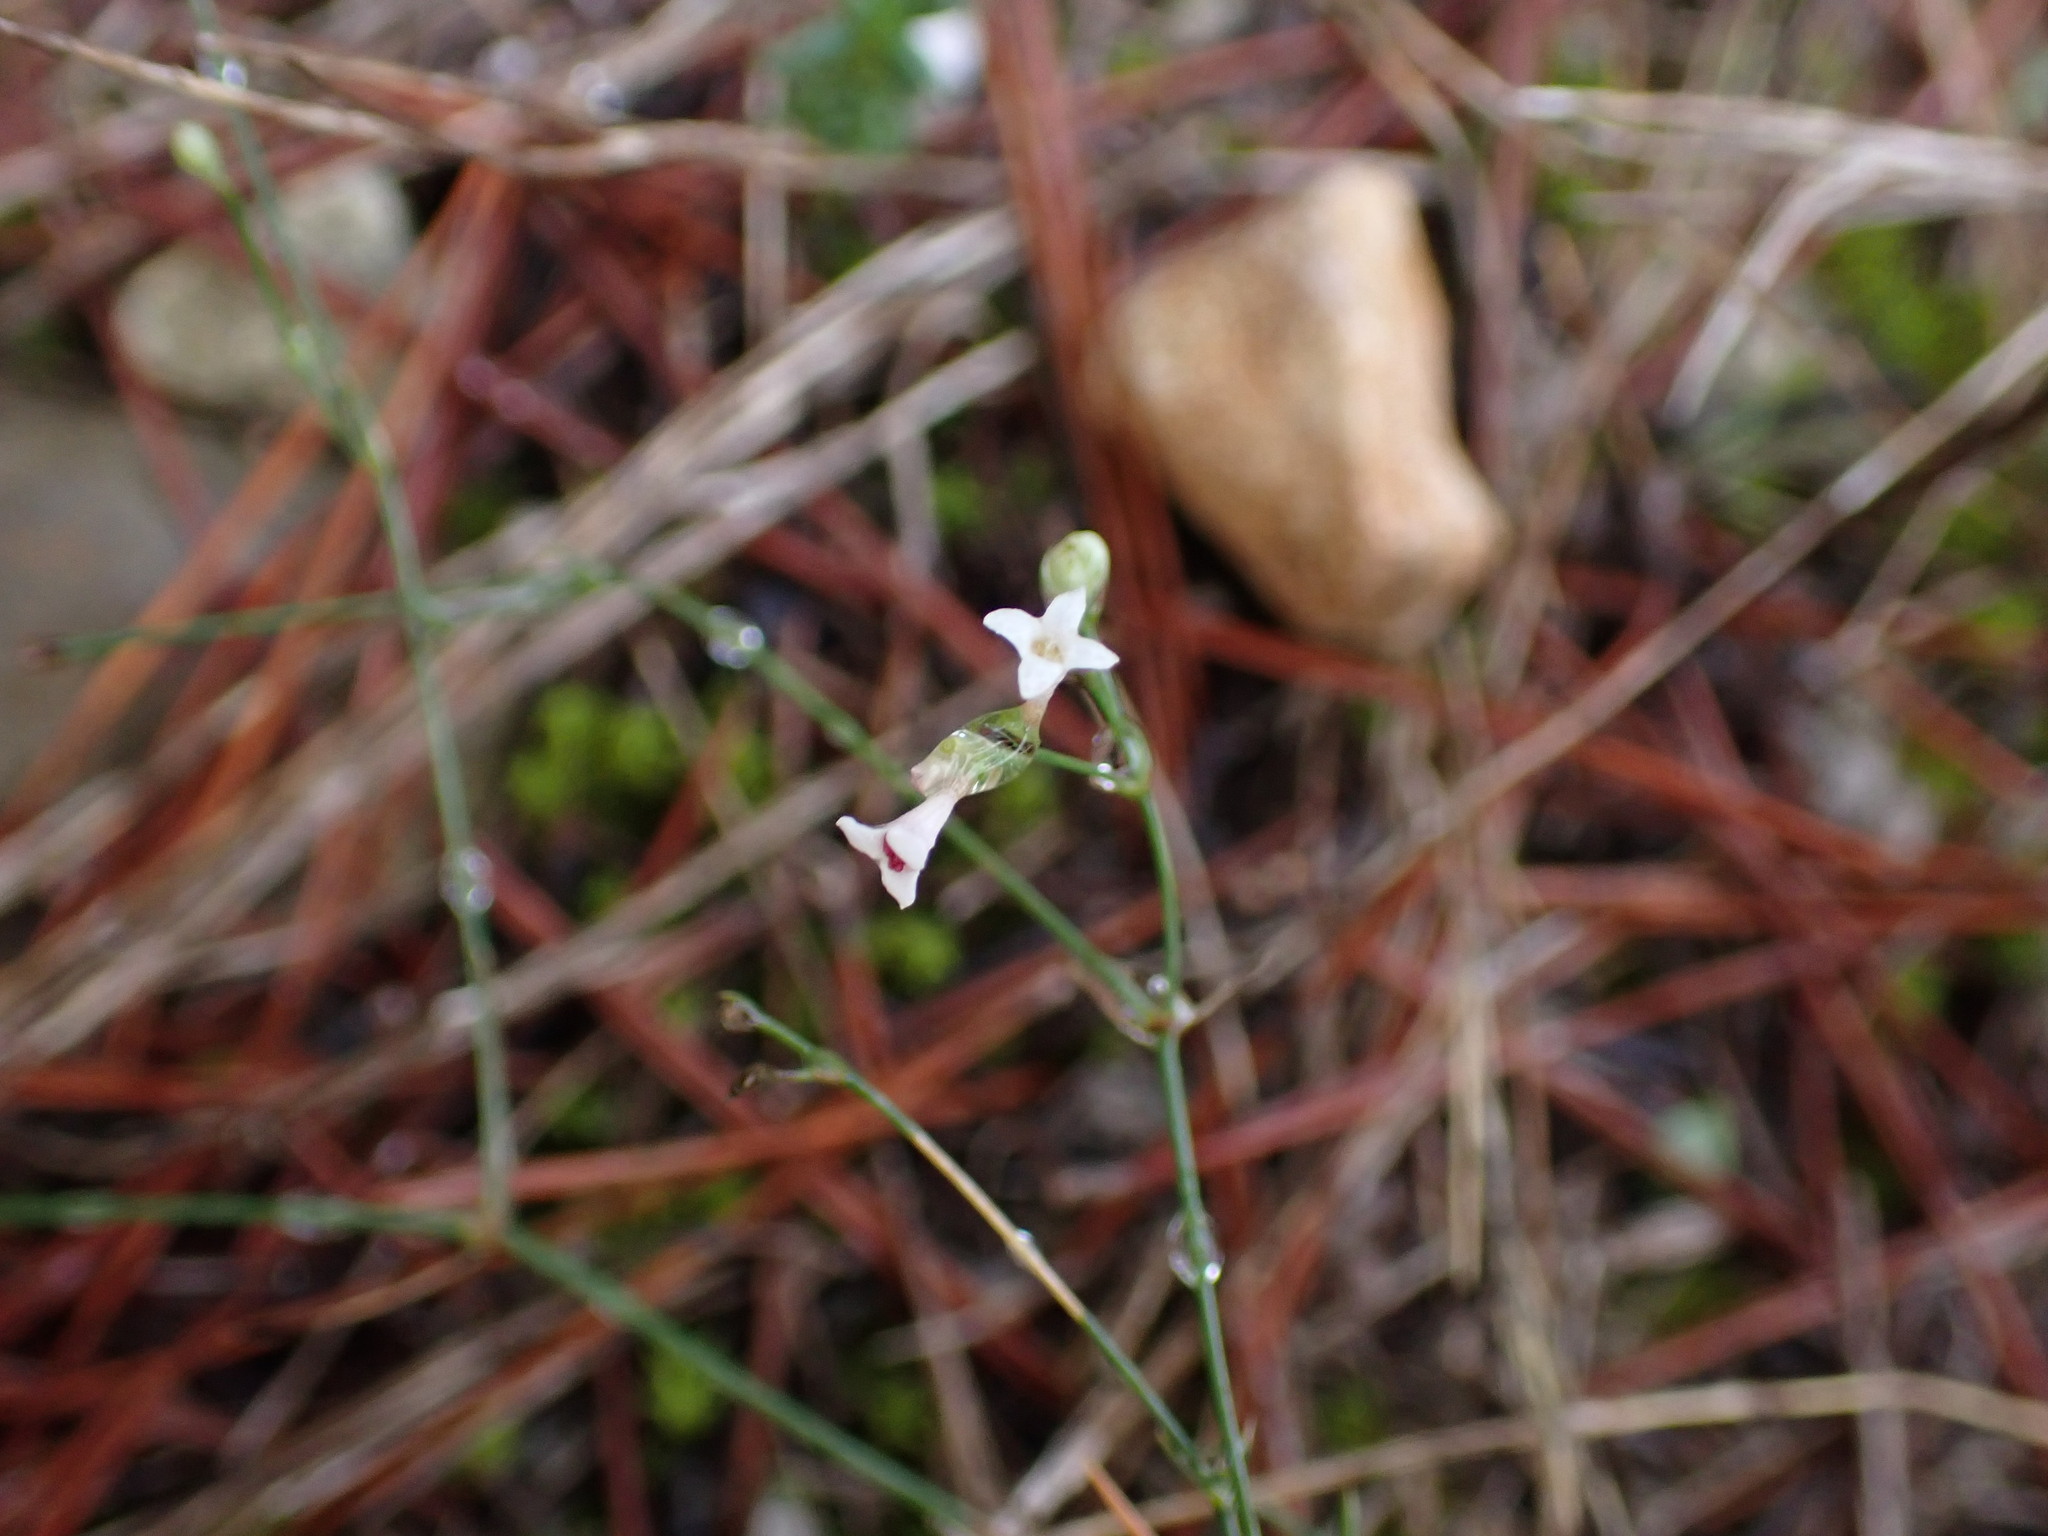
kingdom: Plantae
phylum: Tracheophyta
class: Magnoliopsida
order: Gentianales
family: Rubiaceae
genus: Cynanchica
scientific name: Cynanchica pyrenaica
